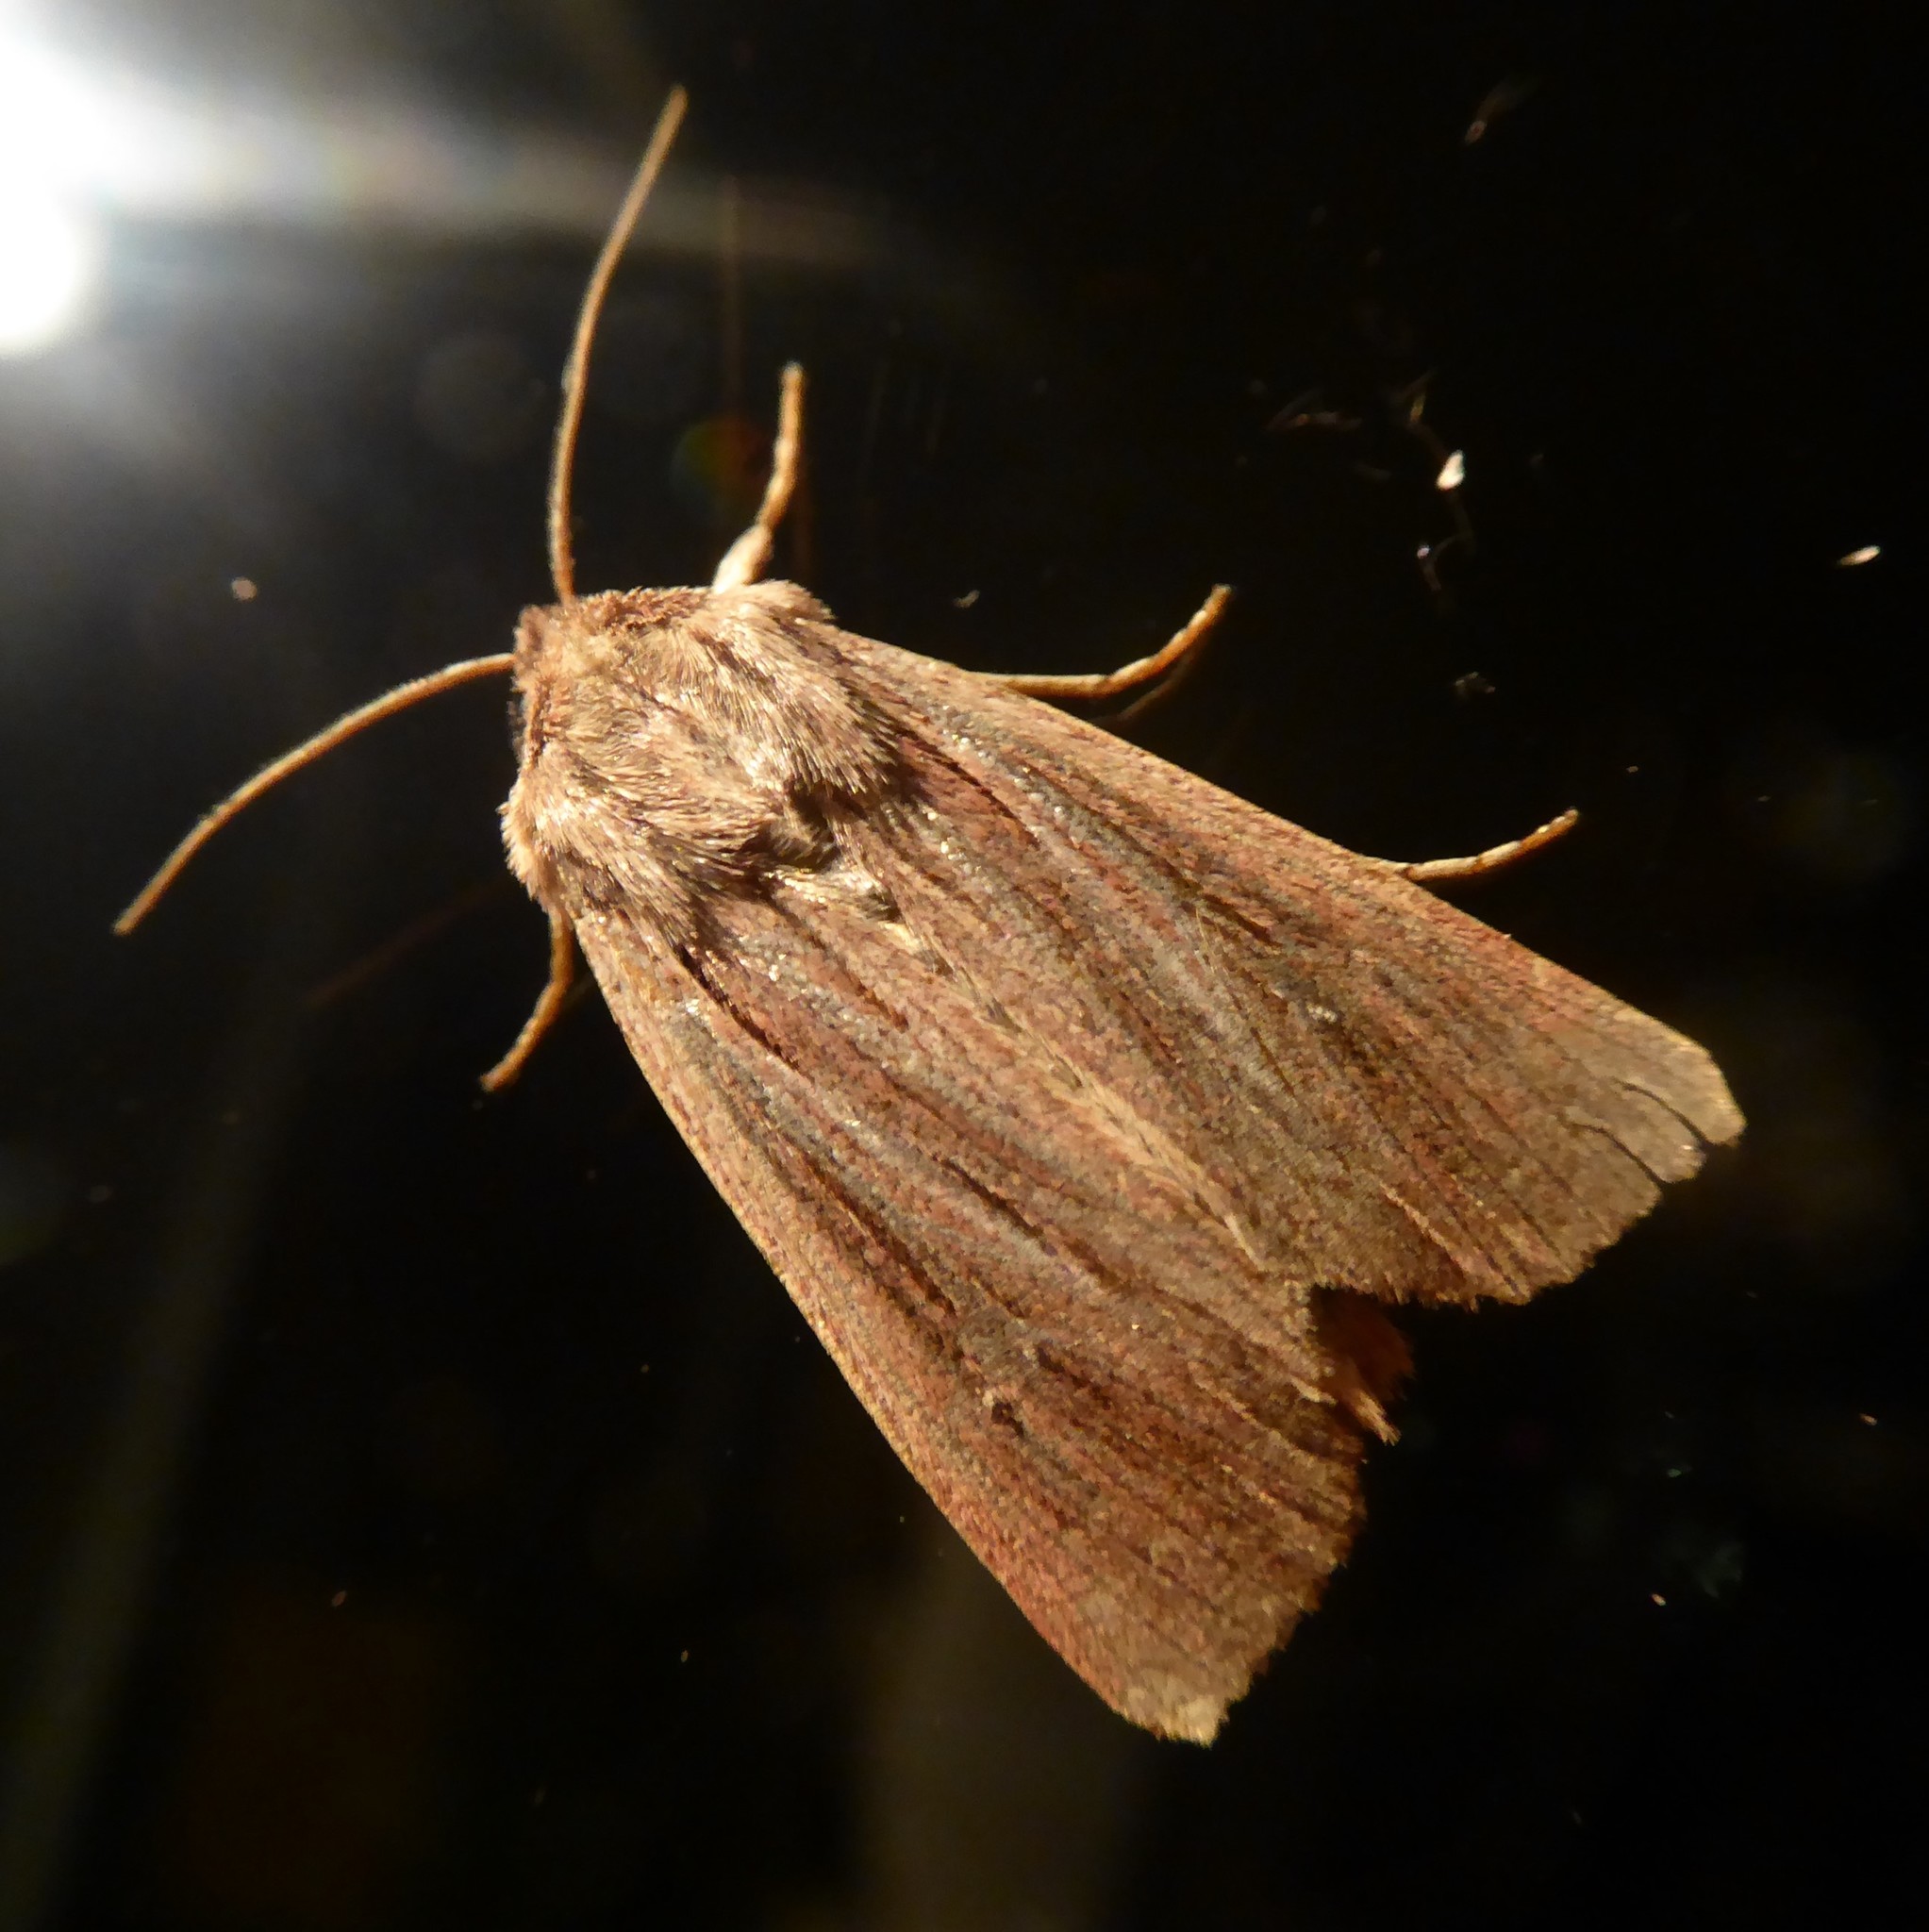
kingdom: Animalia
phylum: Arthropoda
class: Insecta
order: Lepidoptera
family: Noctuidae
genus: Ichneutica
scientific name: Ichneutica
